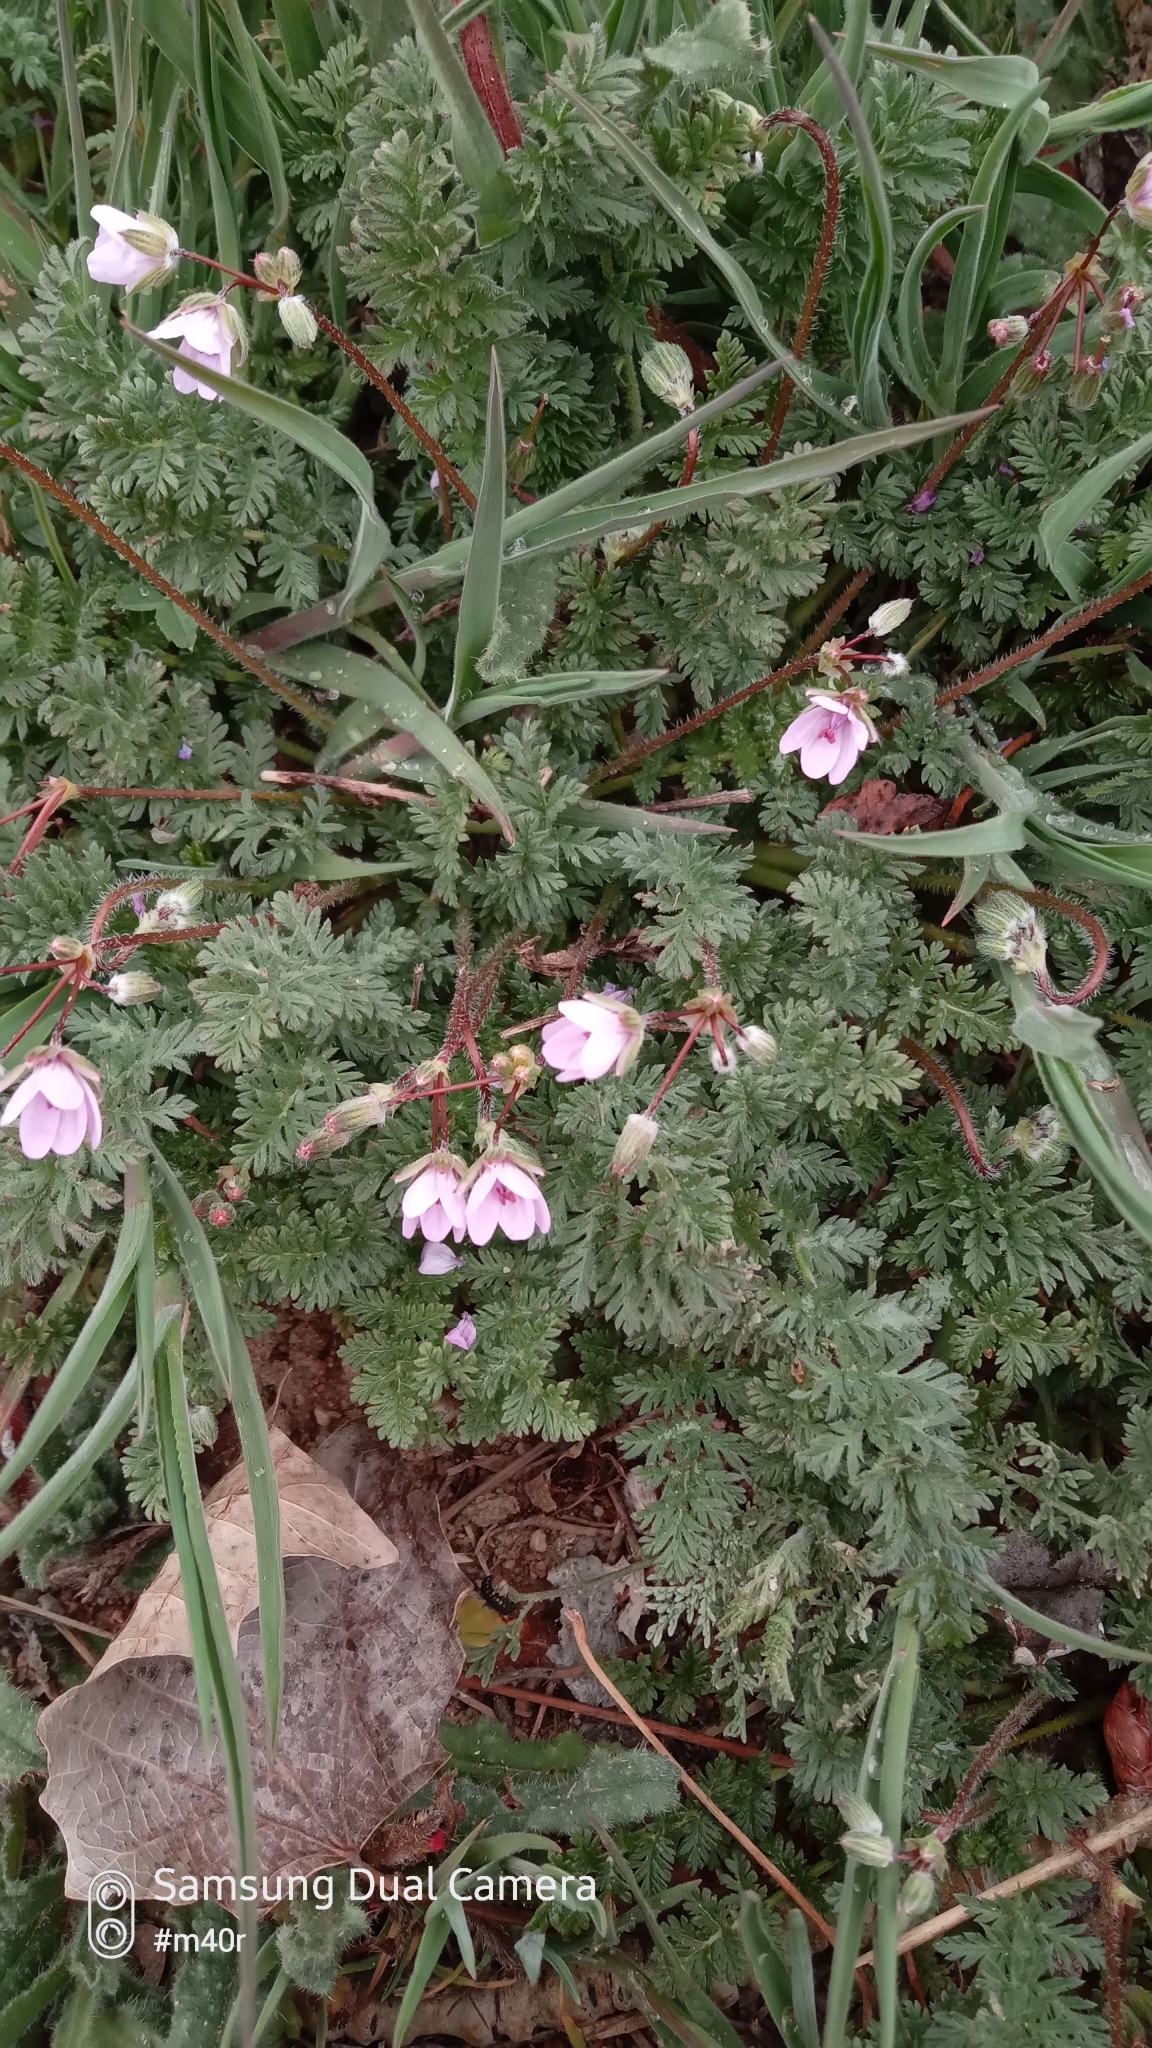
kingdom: Plantae
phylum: Tracheophyta
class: Magnoliopsida
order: Geraniales
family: Geraniaceae
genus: Erodium
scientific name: Erodium cicutarium
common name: Common stork's-bill
